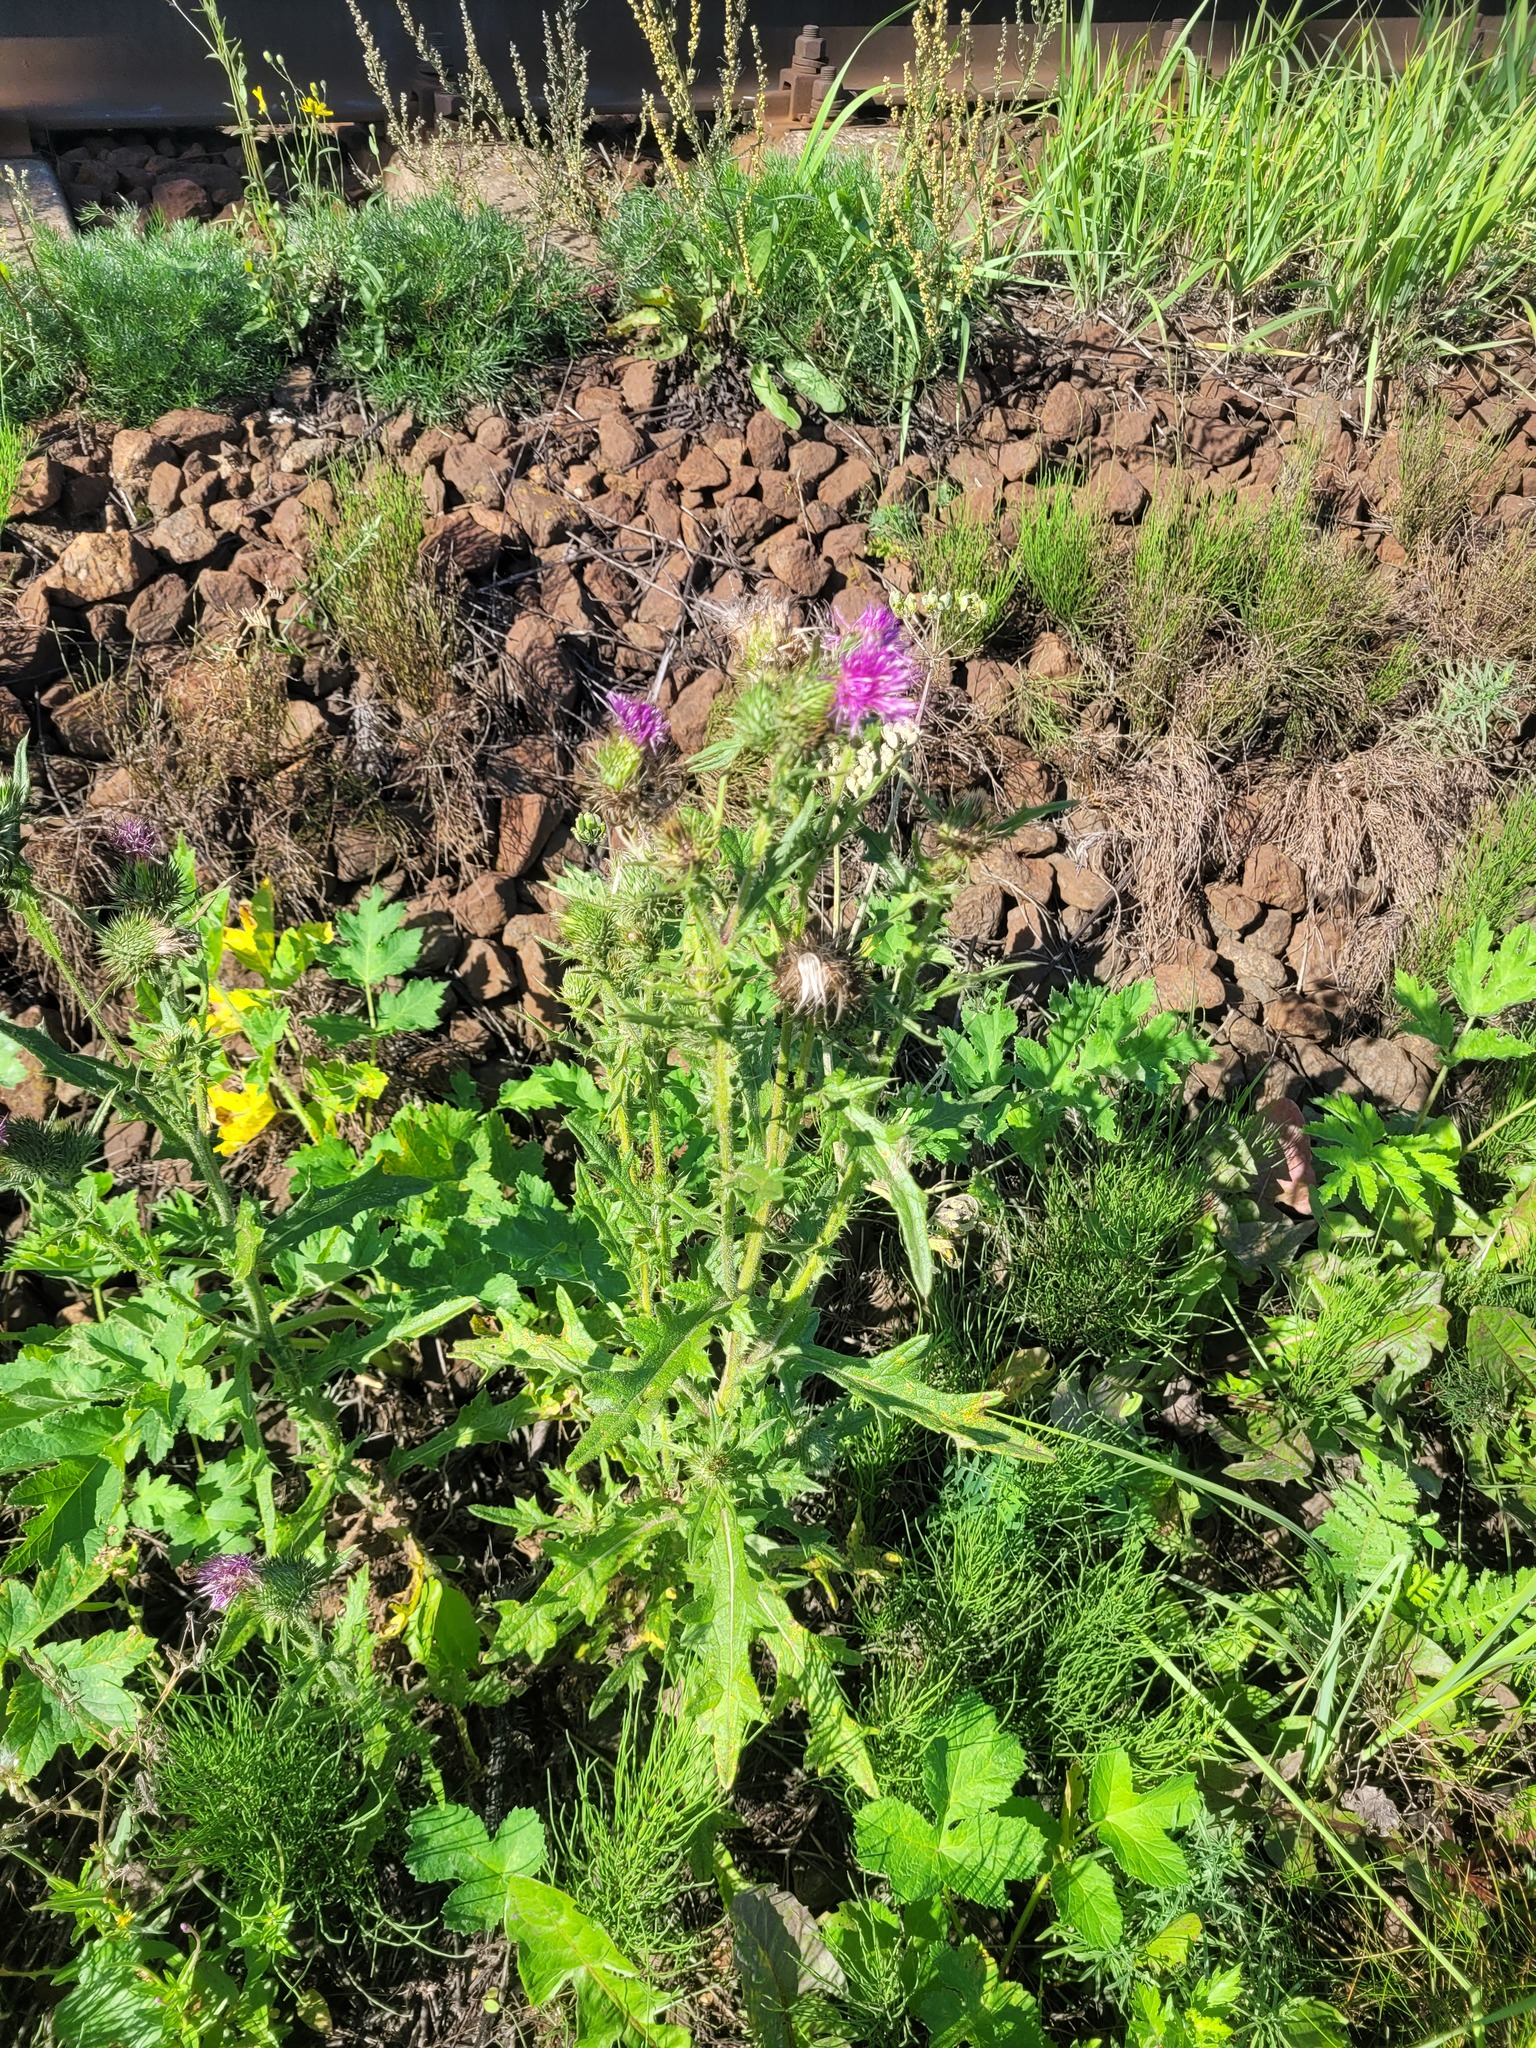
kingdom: Plantae
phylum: Tracheophyta
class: Magnoliopsida
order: Asterales
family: Asteraceae
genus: Cirsium
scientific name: Cirsium vulgare
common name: Bull thistle
